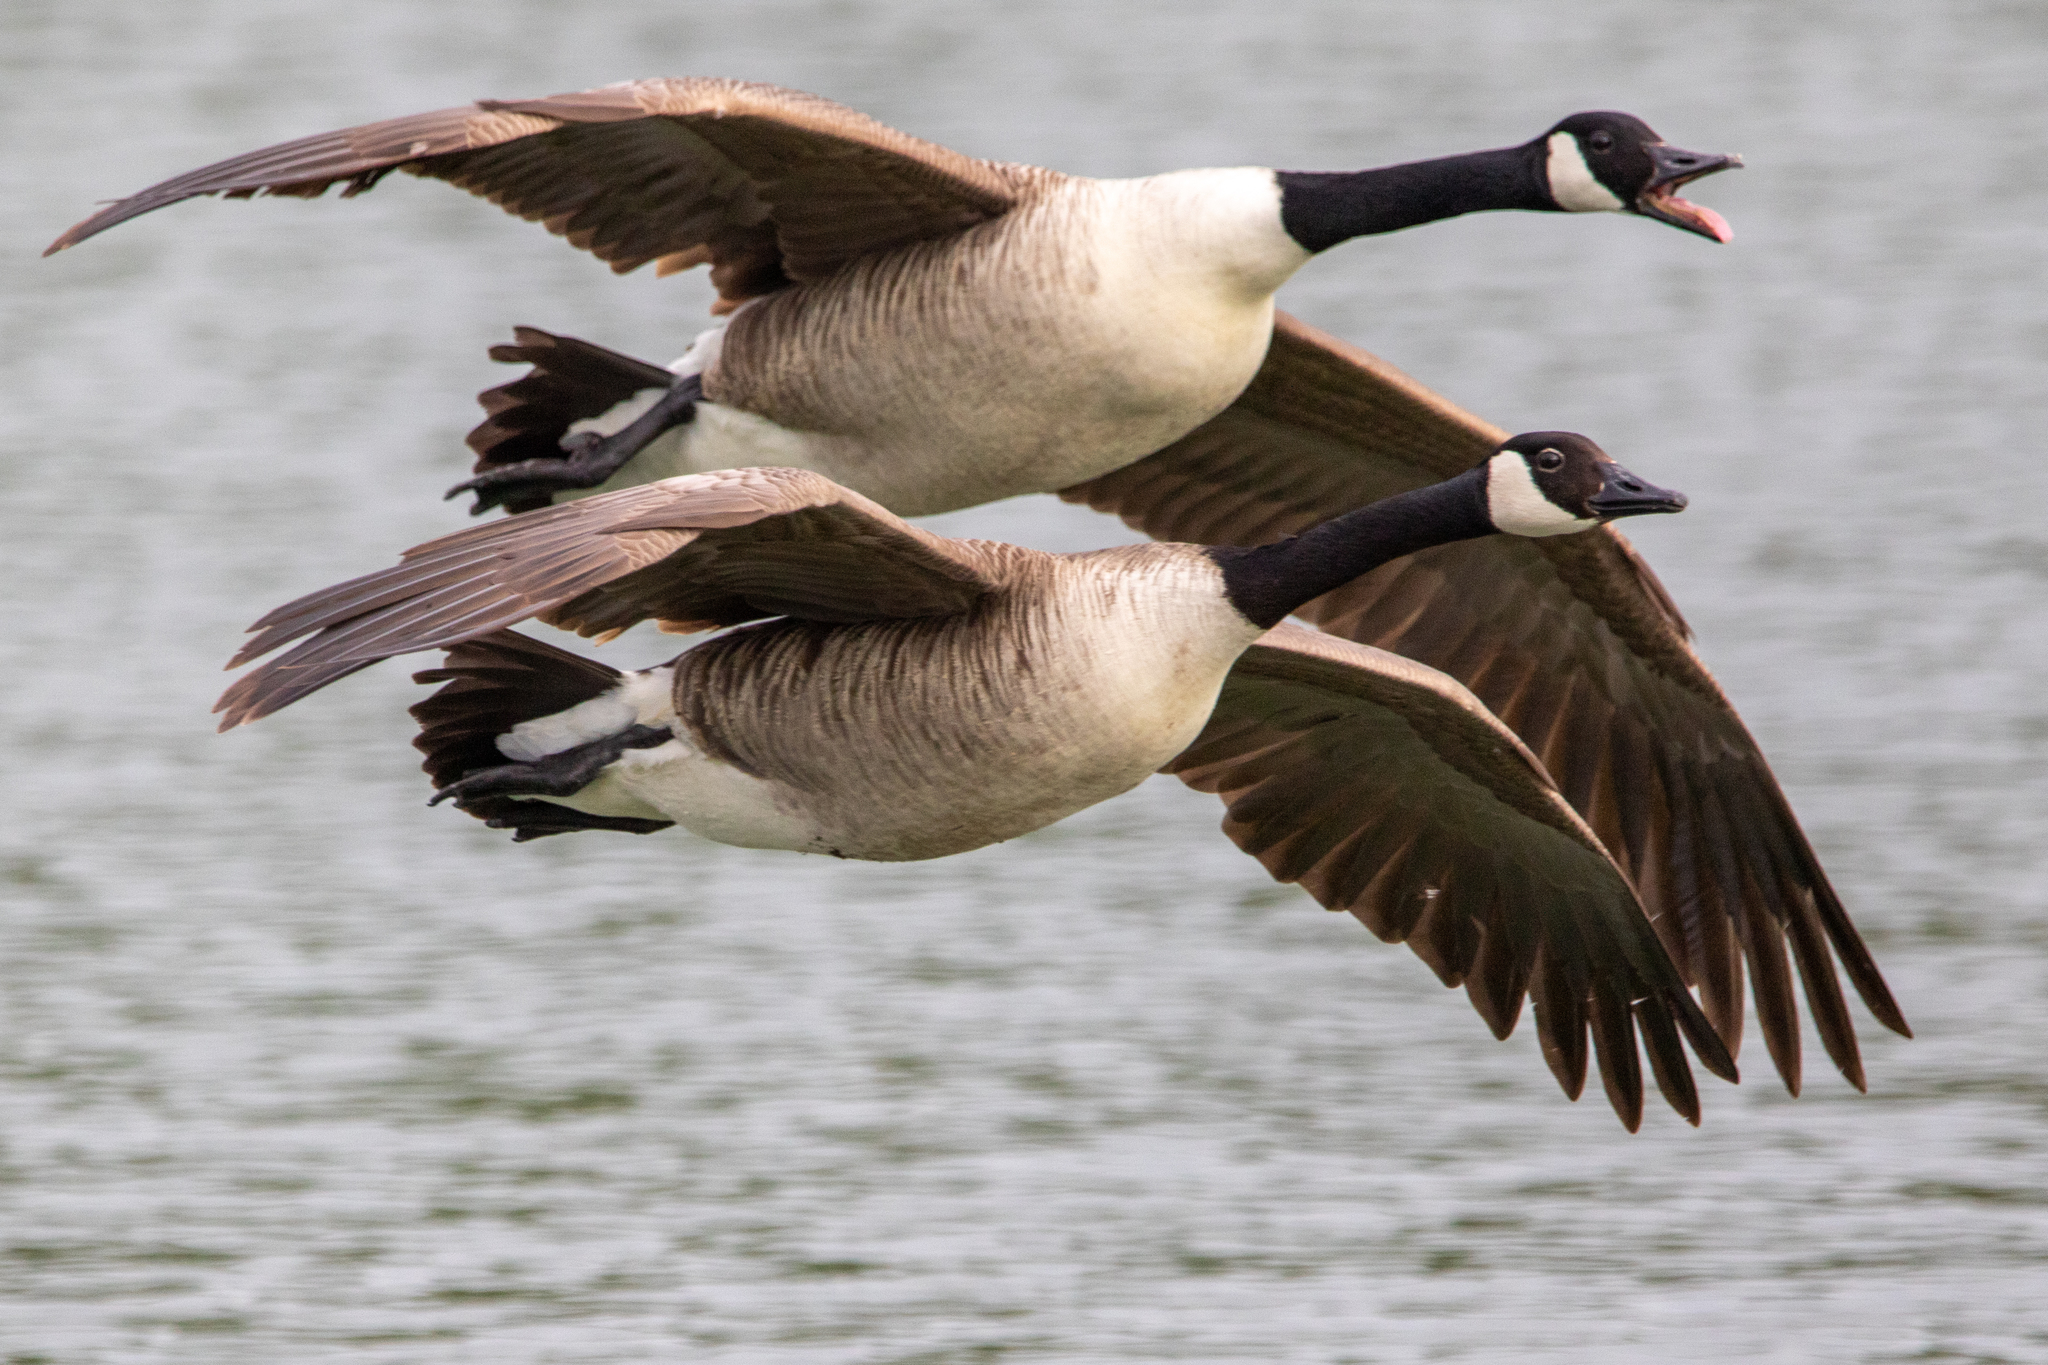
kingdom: Animalia
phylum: Chordata
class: Aves
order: Anseriformes
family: Anatidae
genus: Branta
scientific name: Branta canadensis
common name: Canada goose
